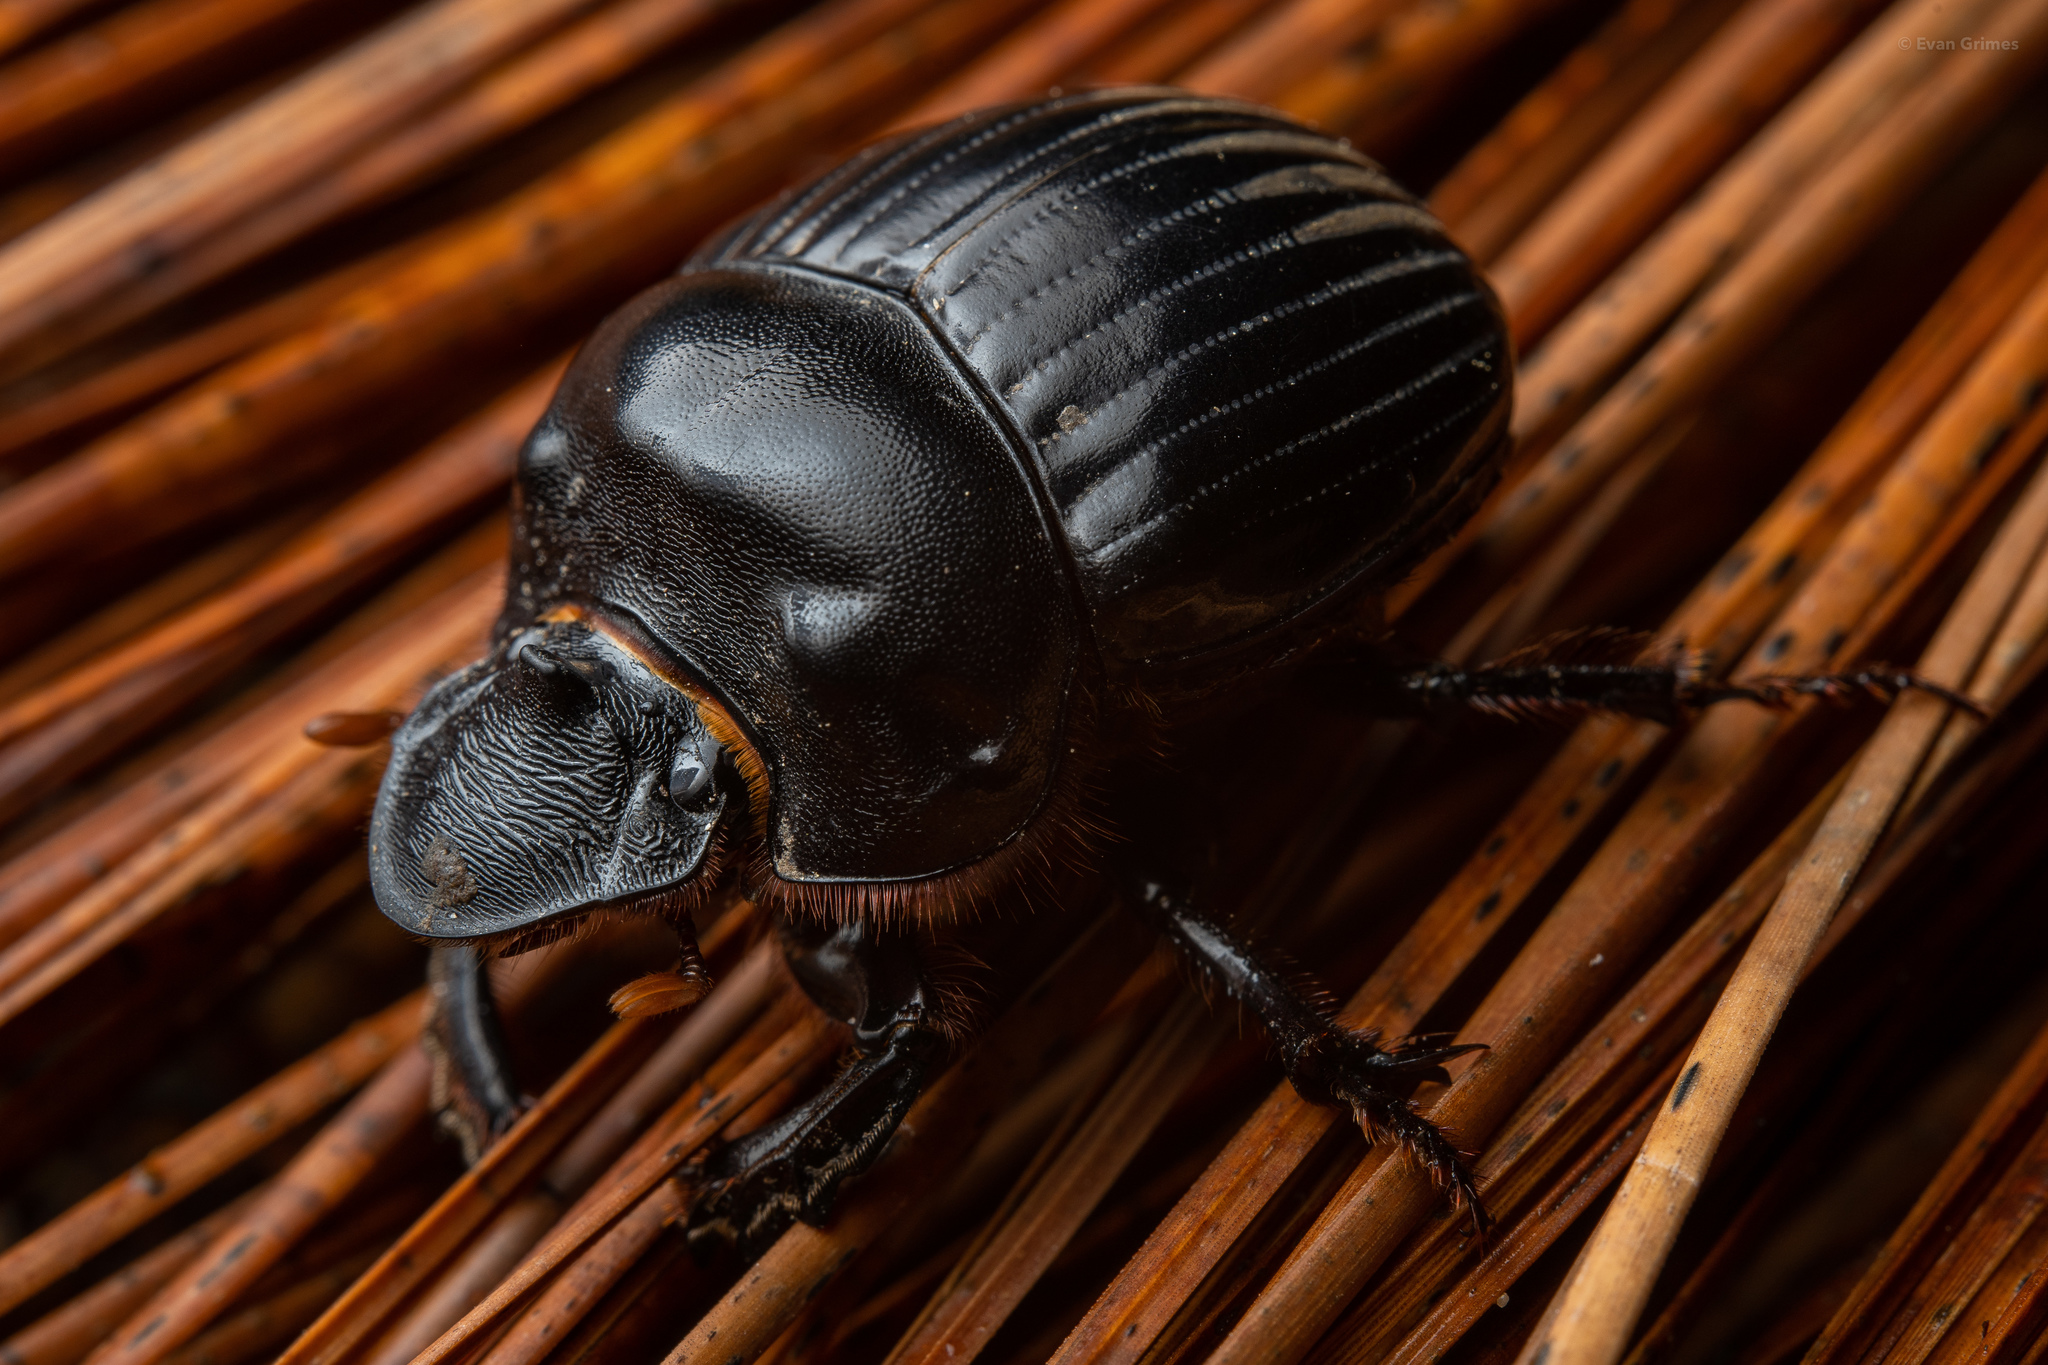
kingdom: Animalia
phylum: Arthropoda
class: Insecta
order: Coleoptera
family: Scarabaeidae
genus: Dichotomius
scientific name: Dichotomius carolinus
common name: Carolina copris
